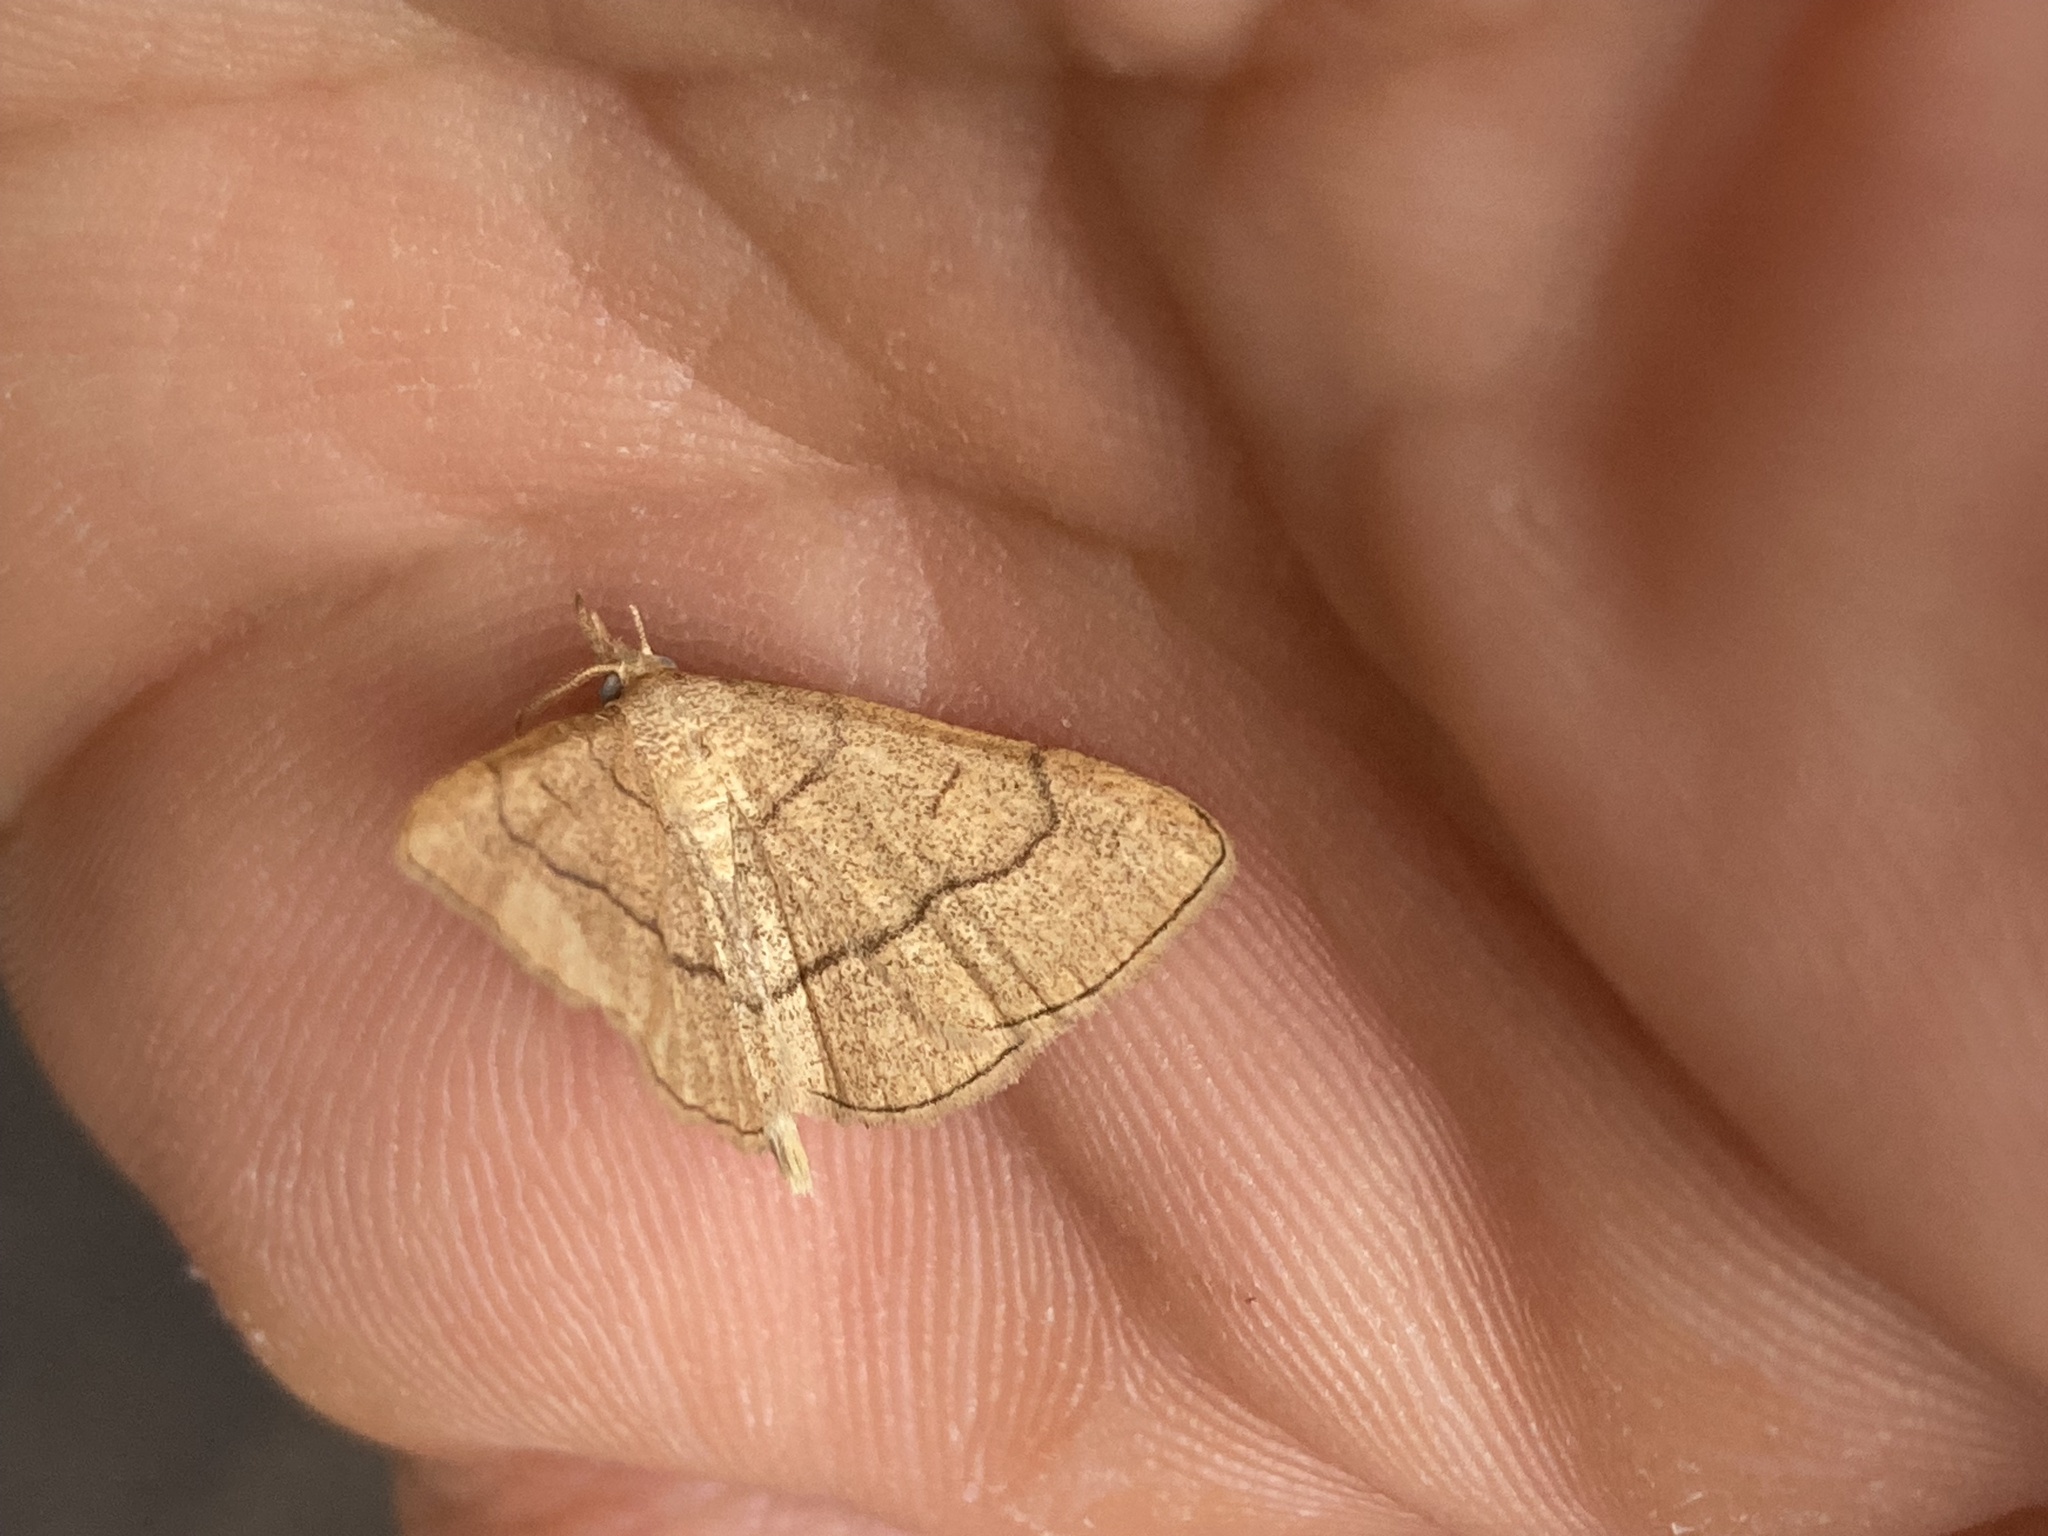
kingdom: Animalia
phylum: Arthropoda
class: Insecta
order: Lepidoptera
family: Erebidae
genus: Paracolax
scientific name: Paracolax tristalis
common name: Clay fan-foot
